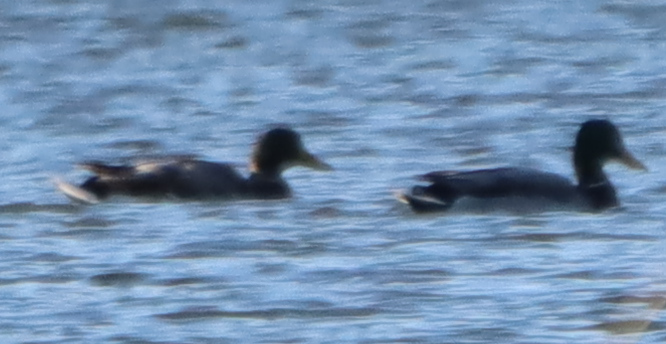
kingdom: Animalia
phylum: Chordata
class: Aves
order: Anseriformes
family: Anatidae
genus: Anas
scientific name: Anas platyrhynchos
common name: Mallard
